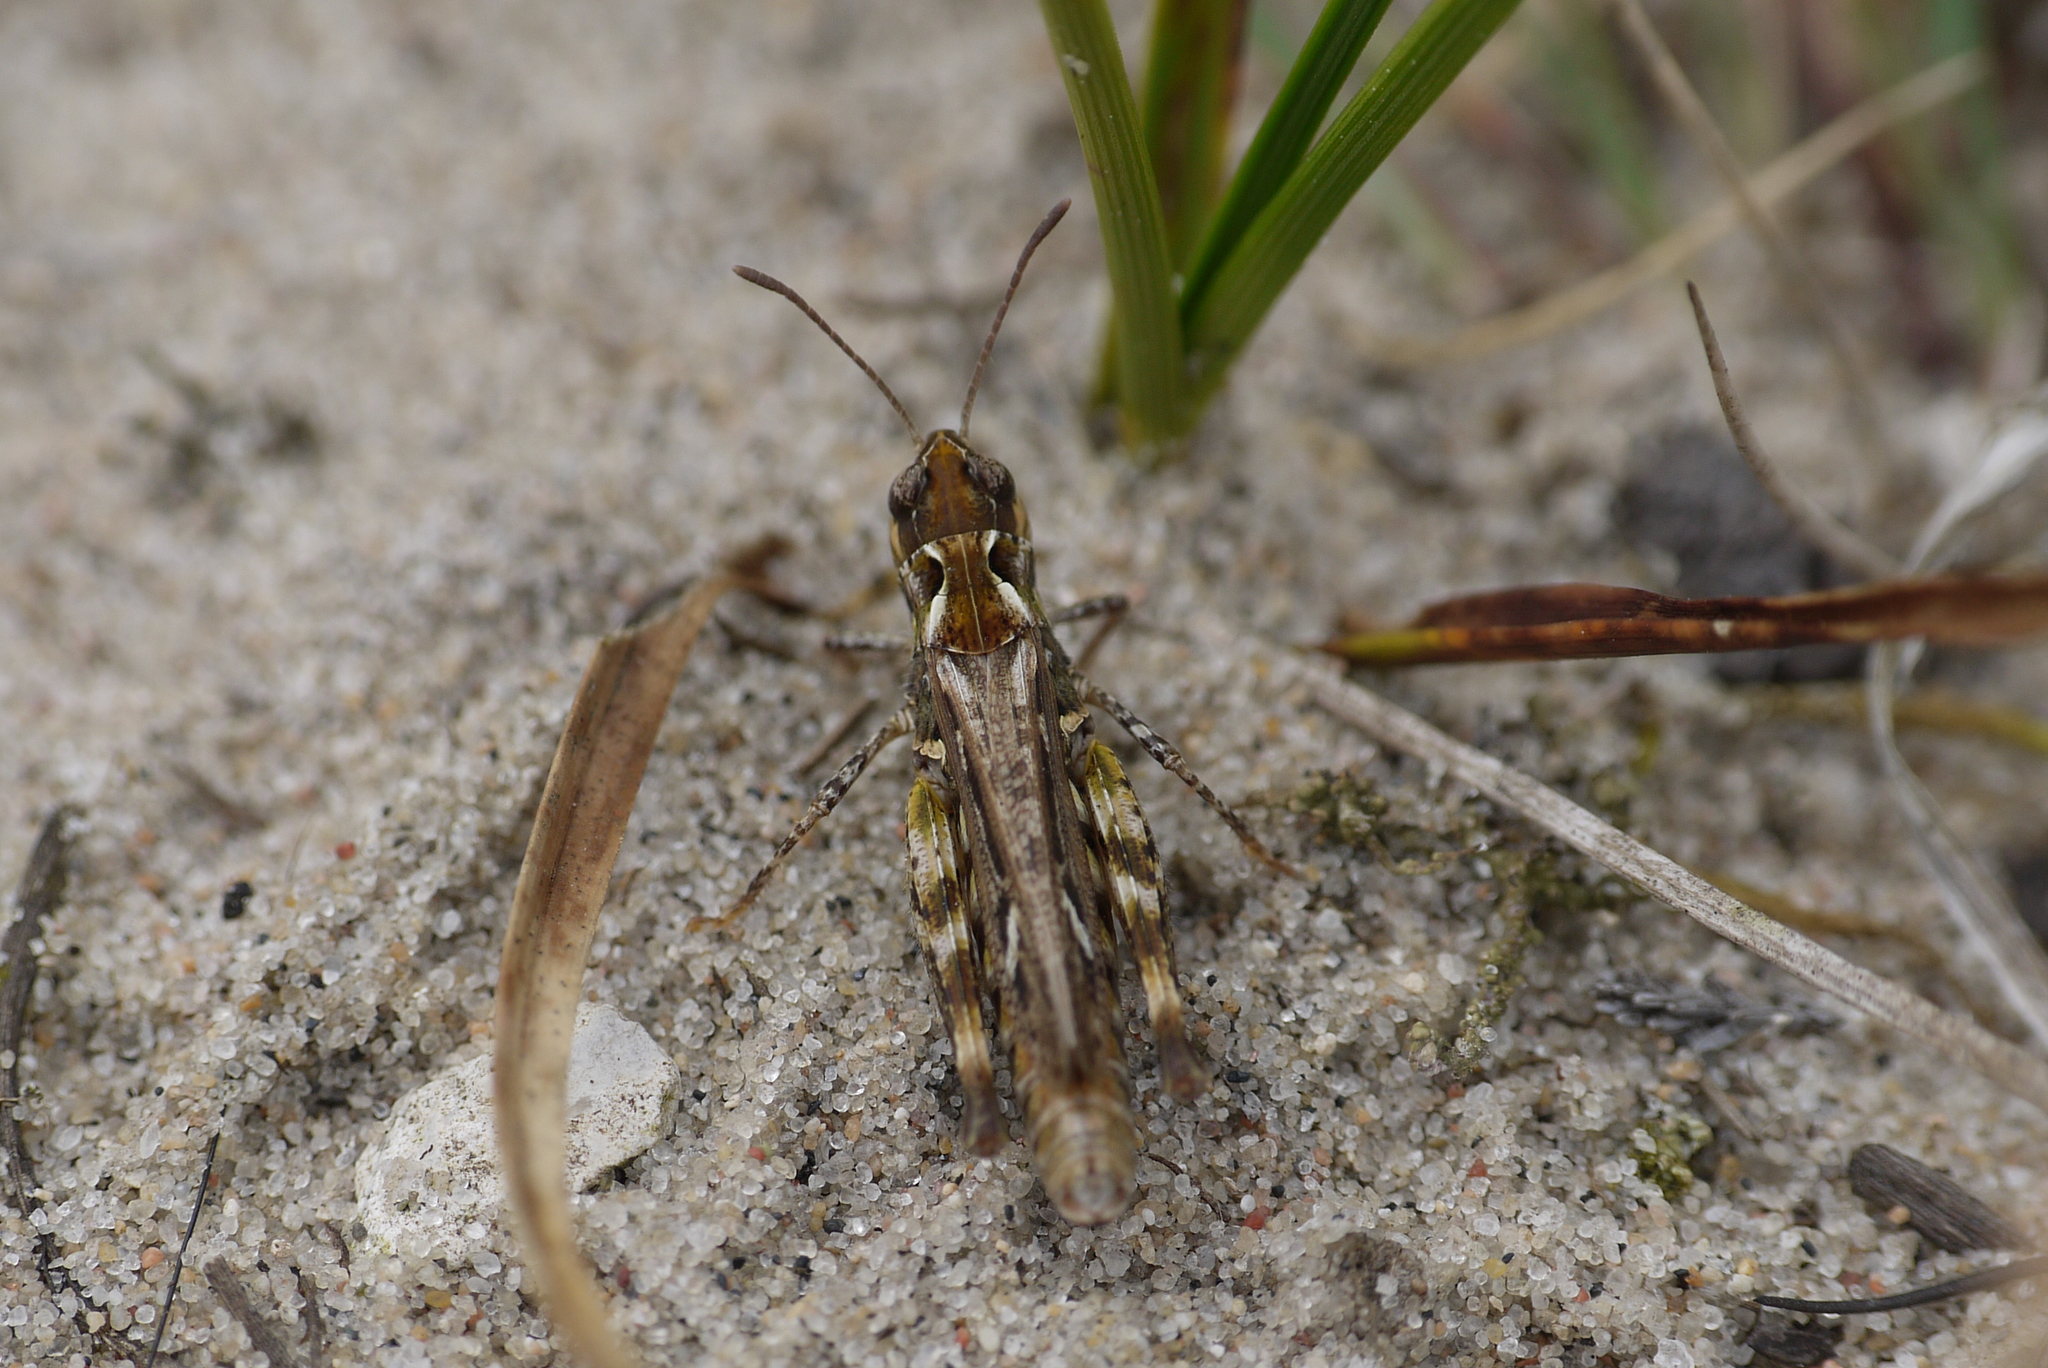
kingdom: Animalia
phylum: Arthropoda
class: Insecta
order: Orthoptera
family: Acrididae
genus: Myrmeleotettix
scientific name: Myrmeleotettix maculatus
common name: Mottled grasshopper
